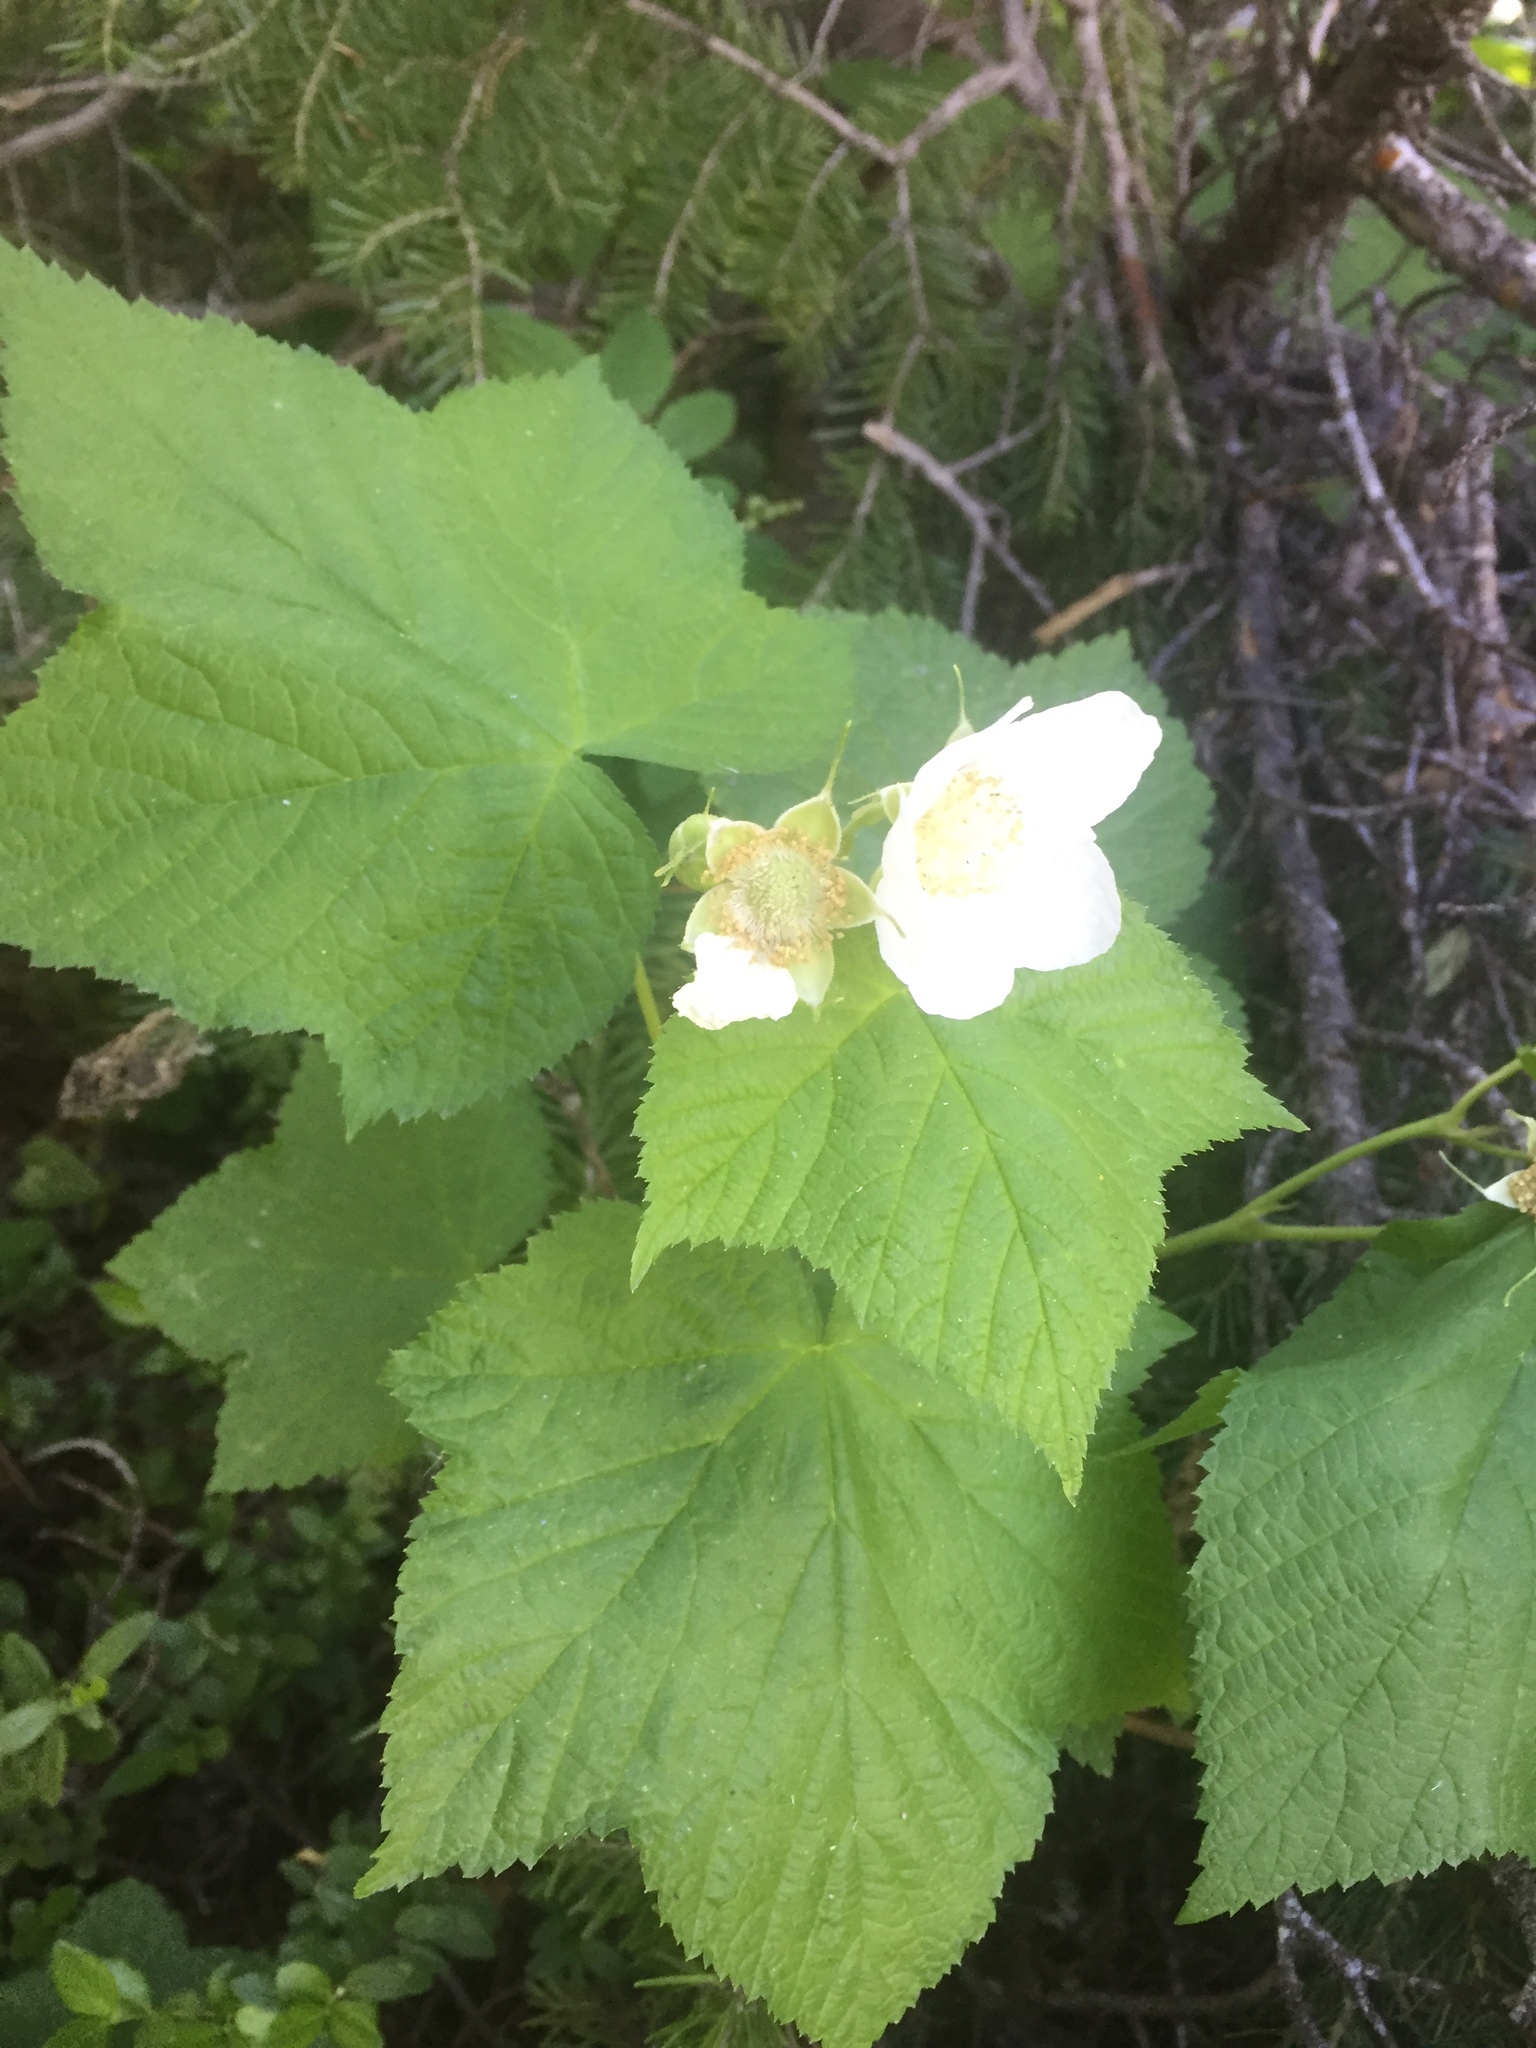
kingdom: Plantae
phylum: Tracheophyta
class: Magnoliopsida
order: Rosales
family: Rosaceae
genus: Rubus
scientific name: Rubus parviflorus
